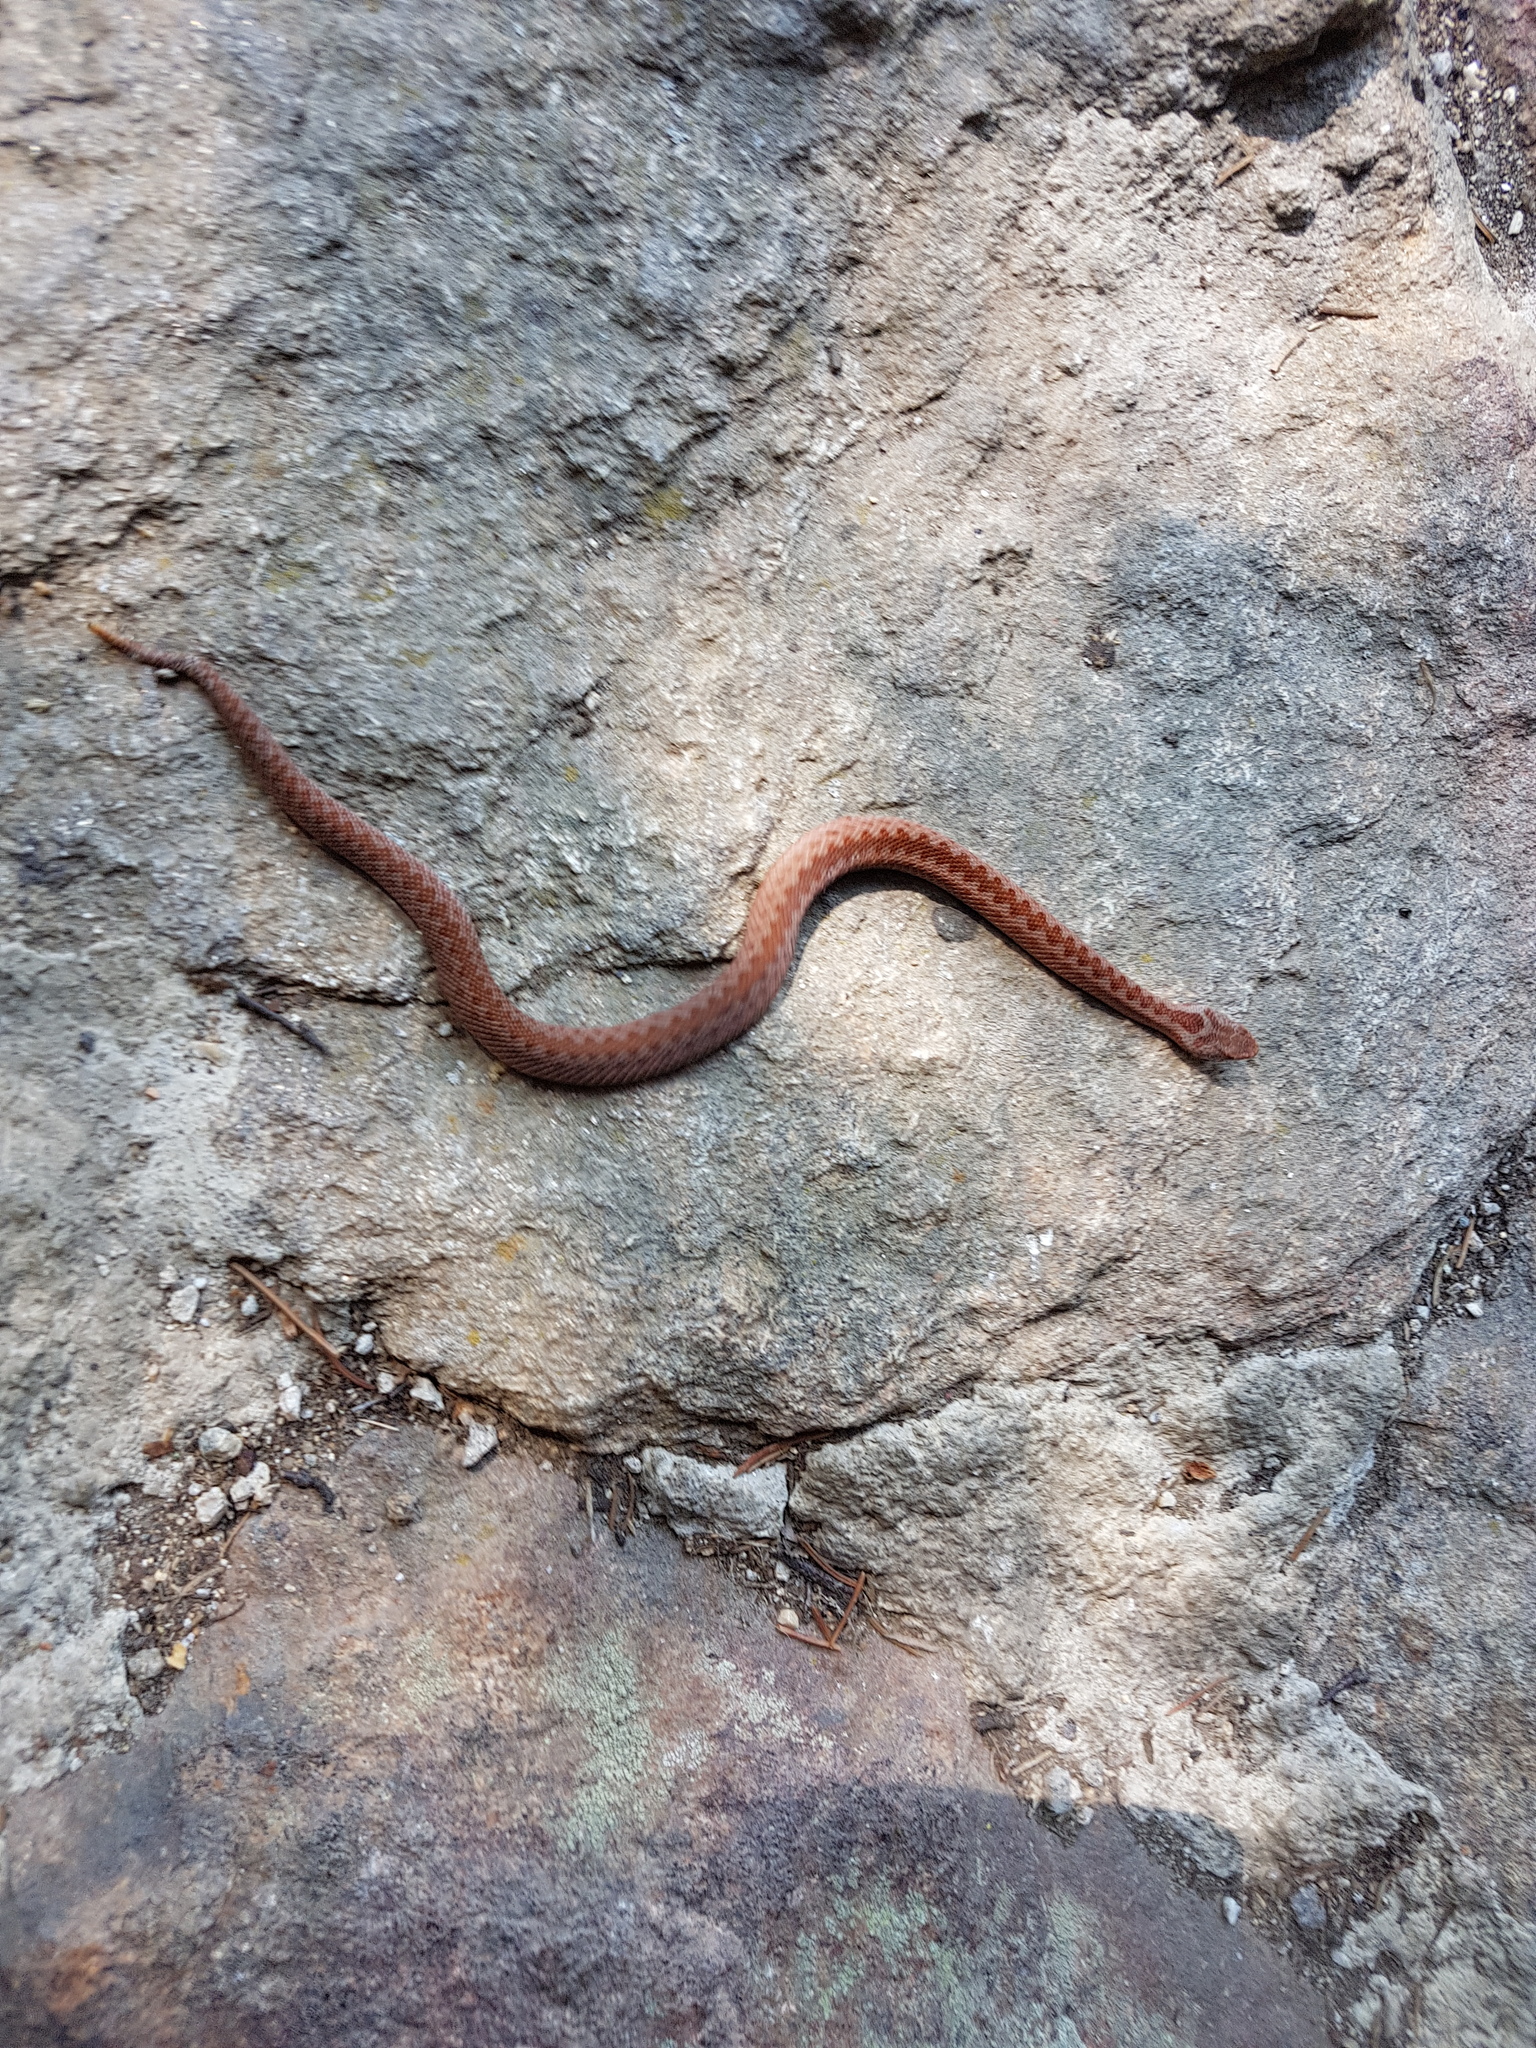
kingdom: Animalia
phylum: Chordata
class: Squamata
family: Viperidae
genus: Vipera
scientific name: Vipera berus
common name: Adder
